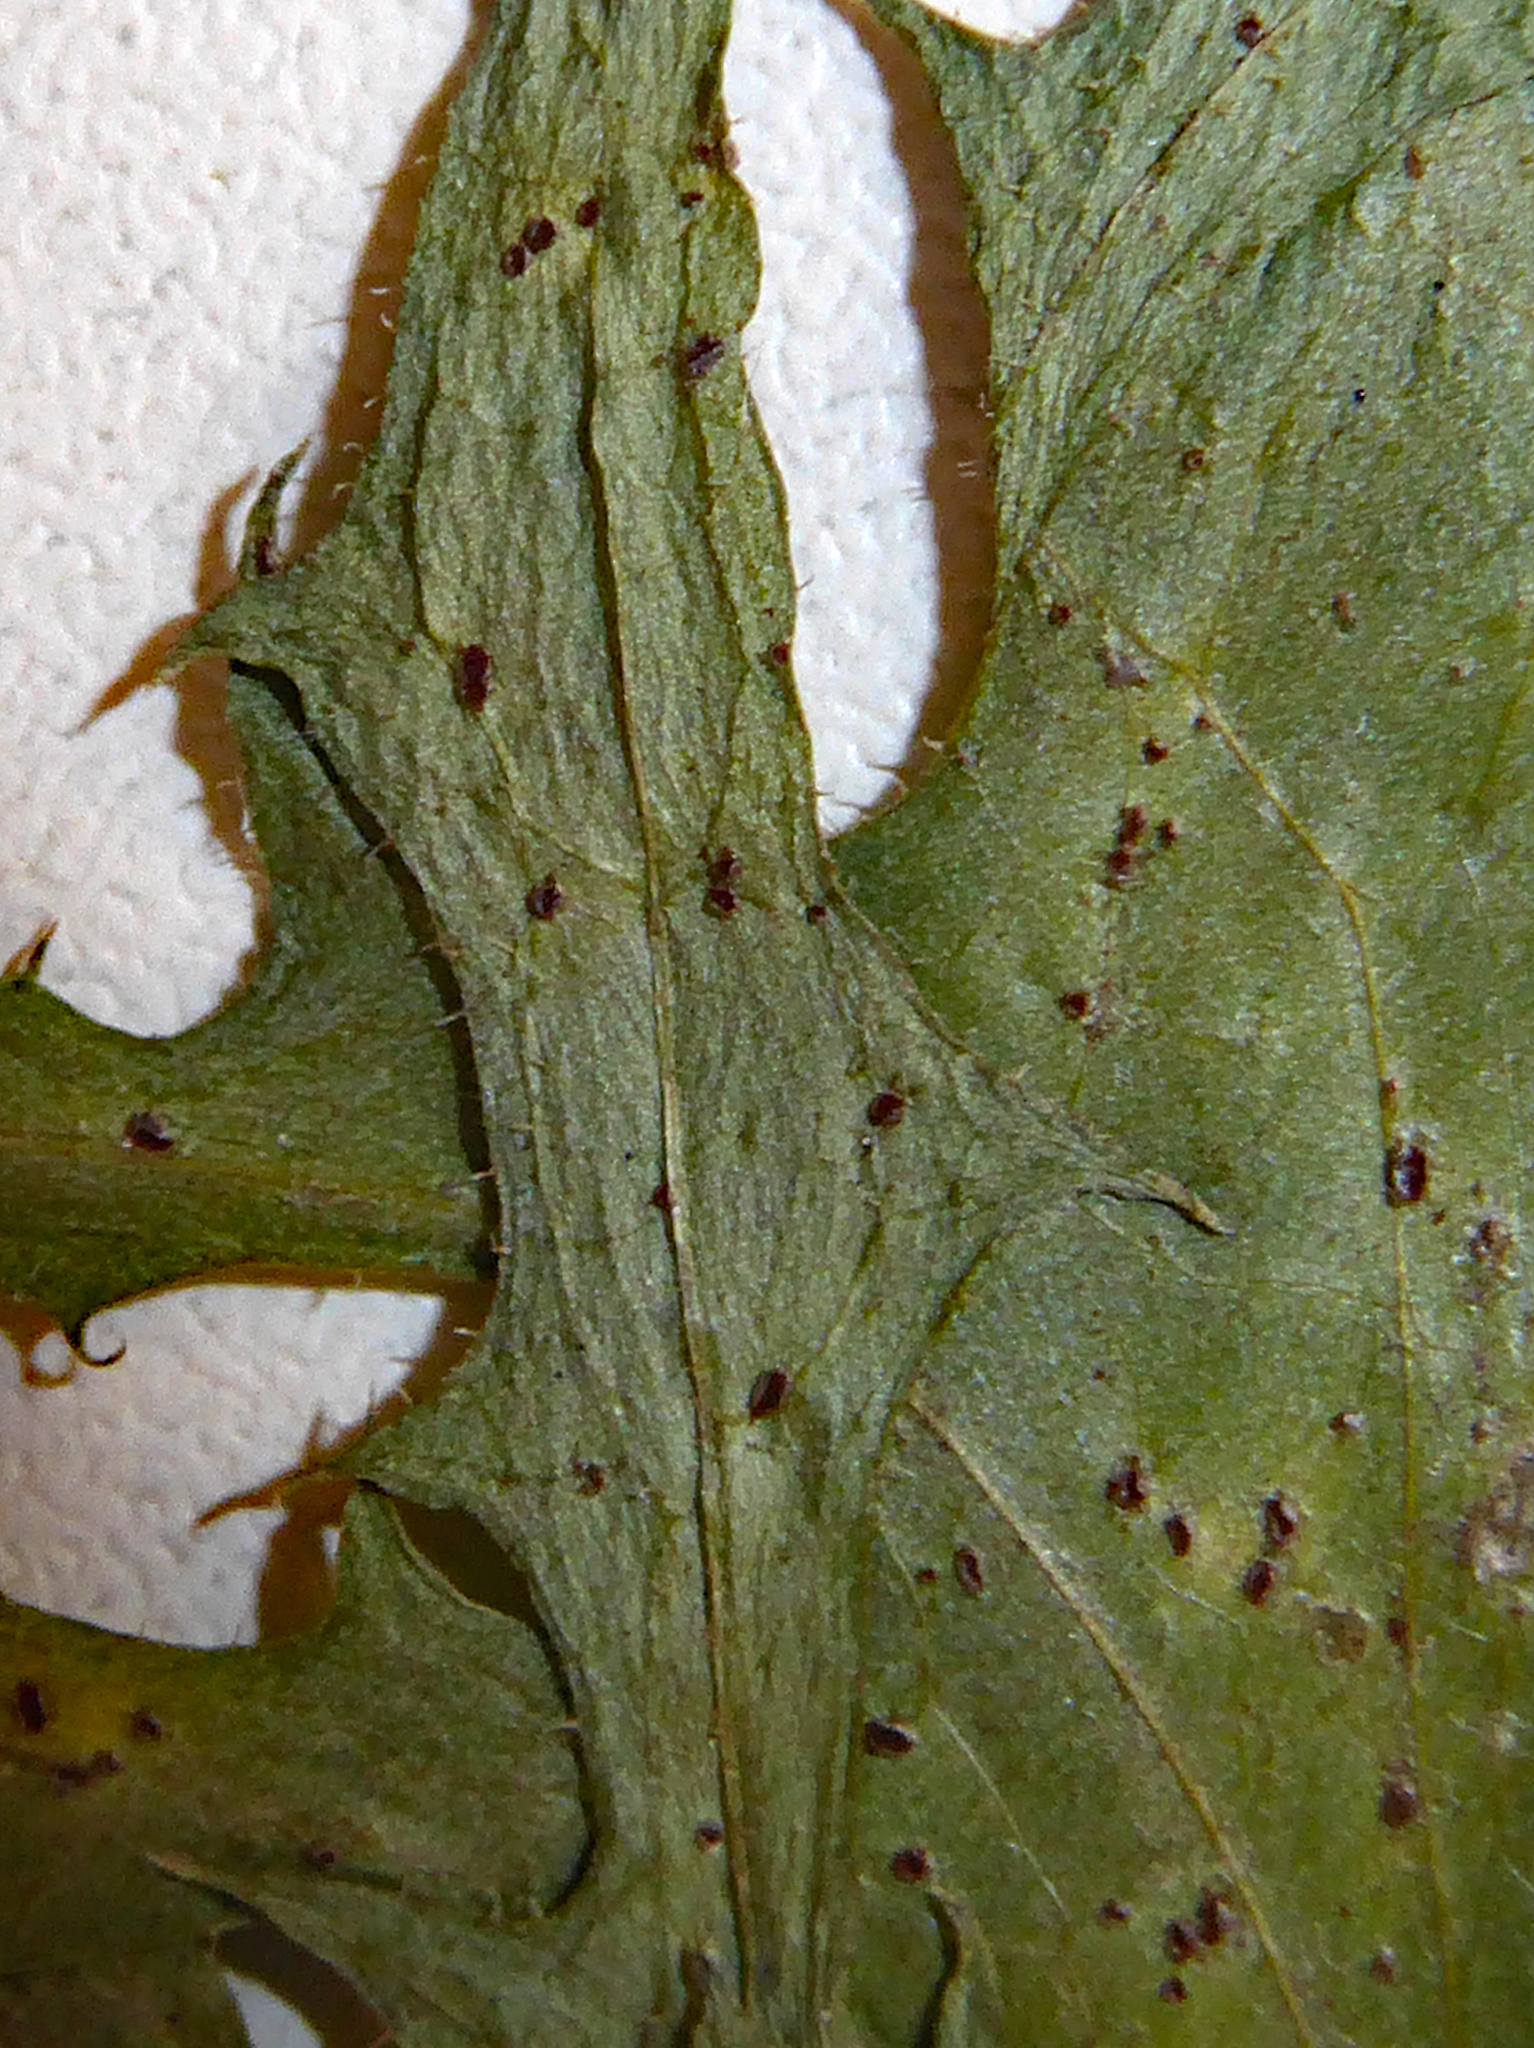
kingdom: Fungi
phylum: Basidiomycota
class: Pucciniomycetes
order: Pucciniales
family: Pucciniaceae
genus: Puccinia
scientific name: Puccinia crepidicola
